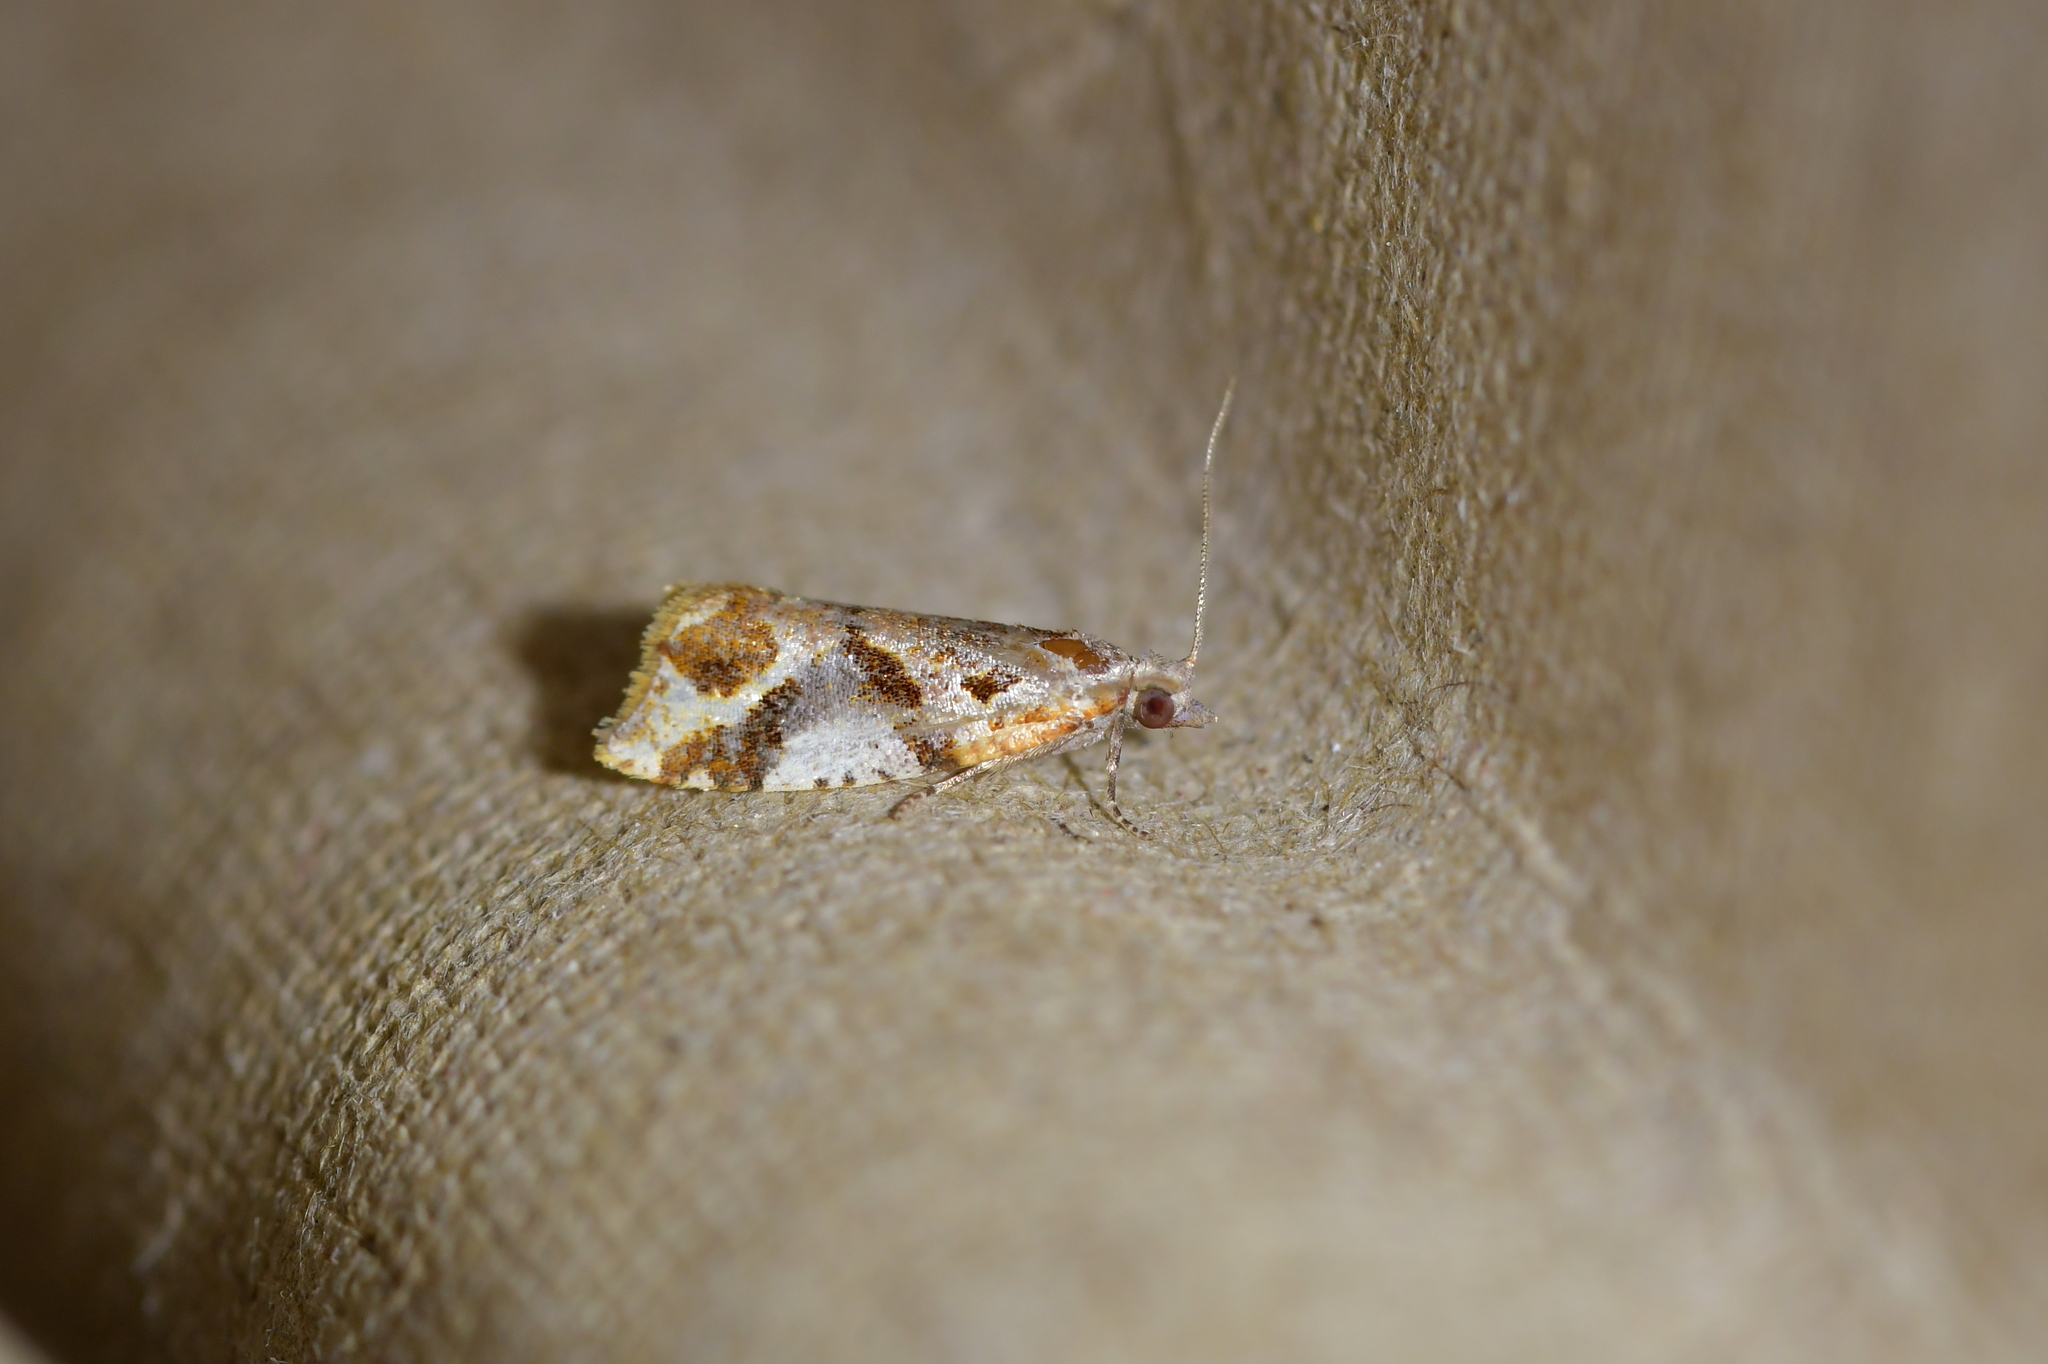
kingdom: Animalia
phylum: Arthropoda
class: Insecta
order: Lepidoptera
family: Tortricidae
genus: Pyrgotis
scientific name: Pyrgotis plagiatana
